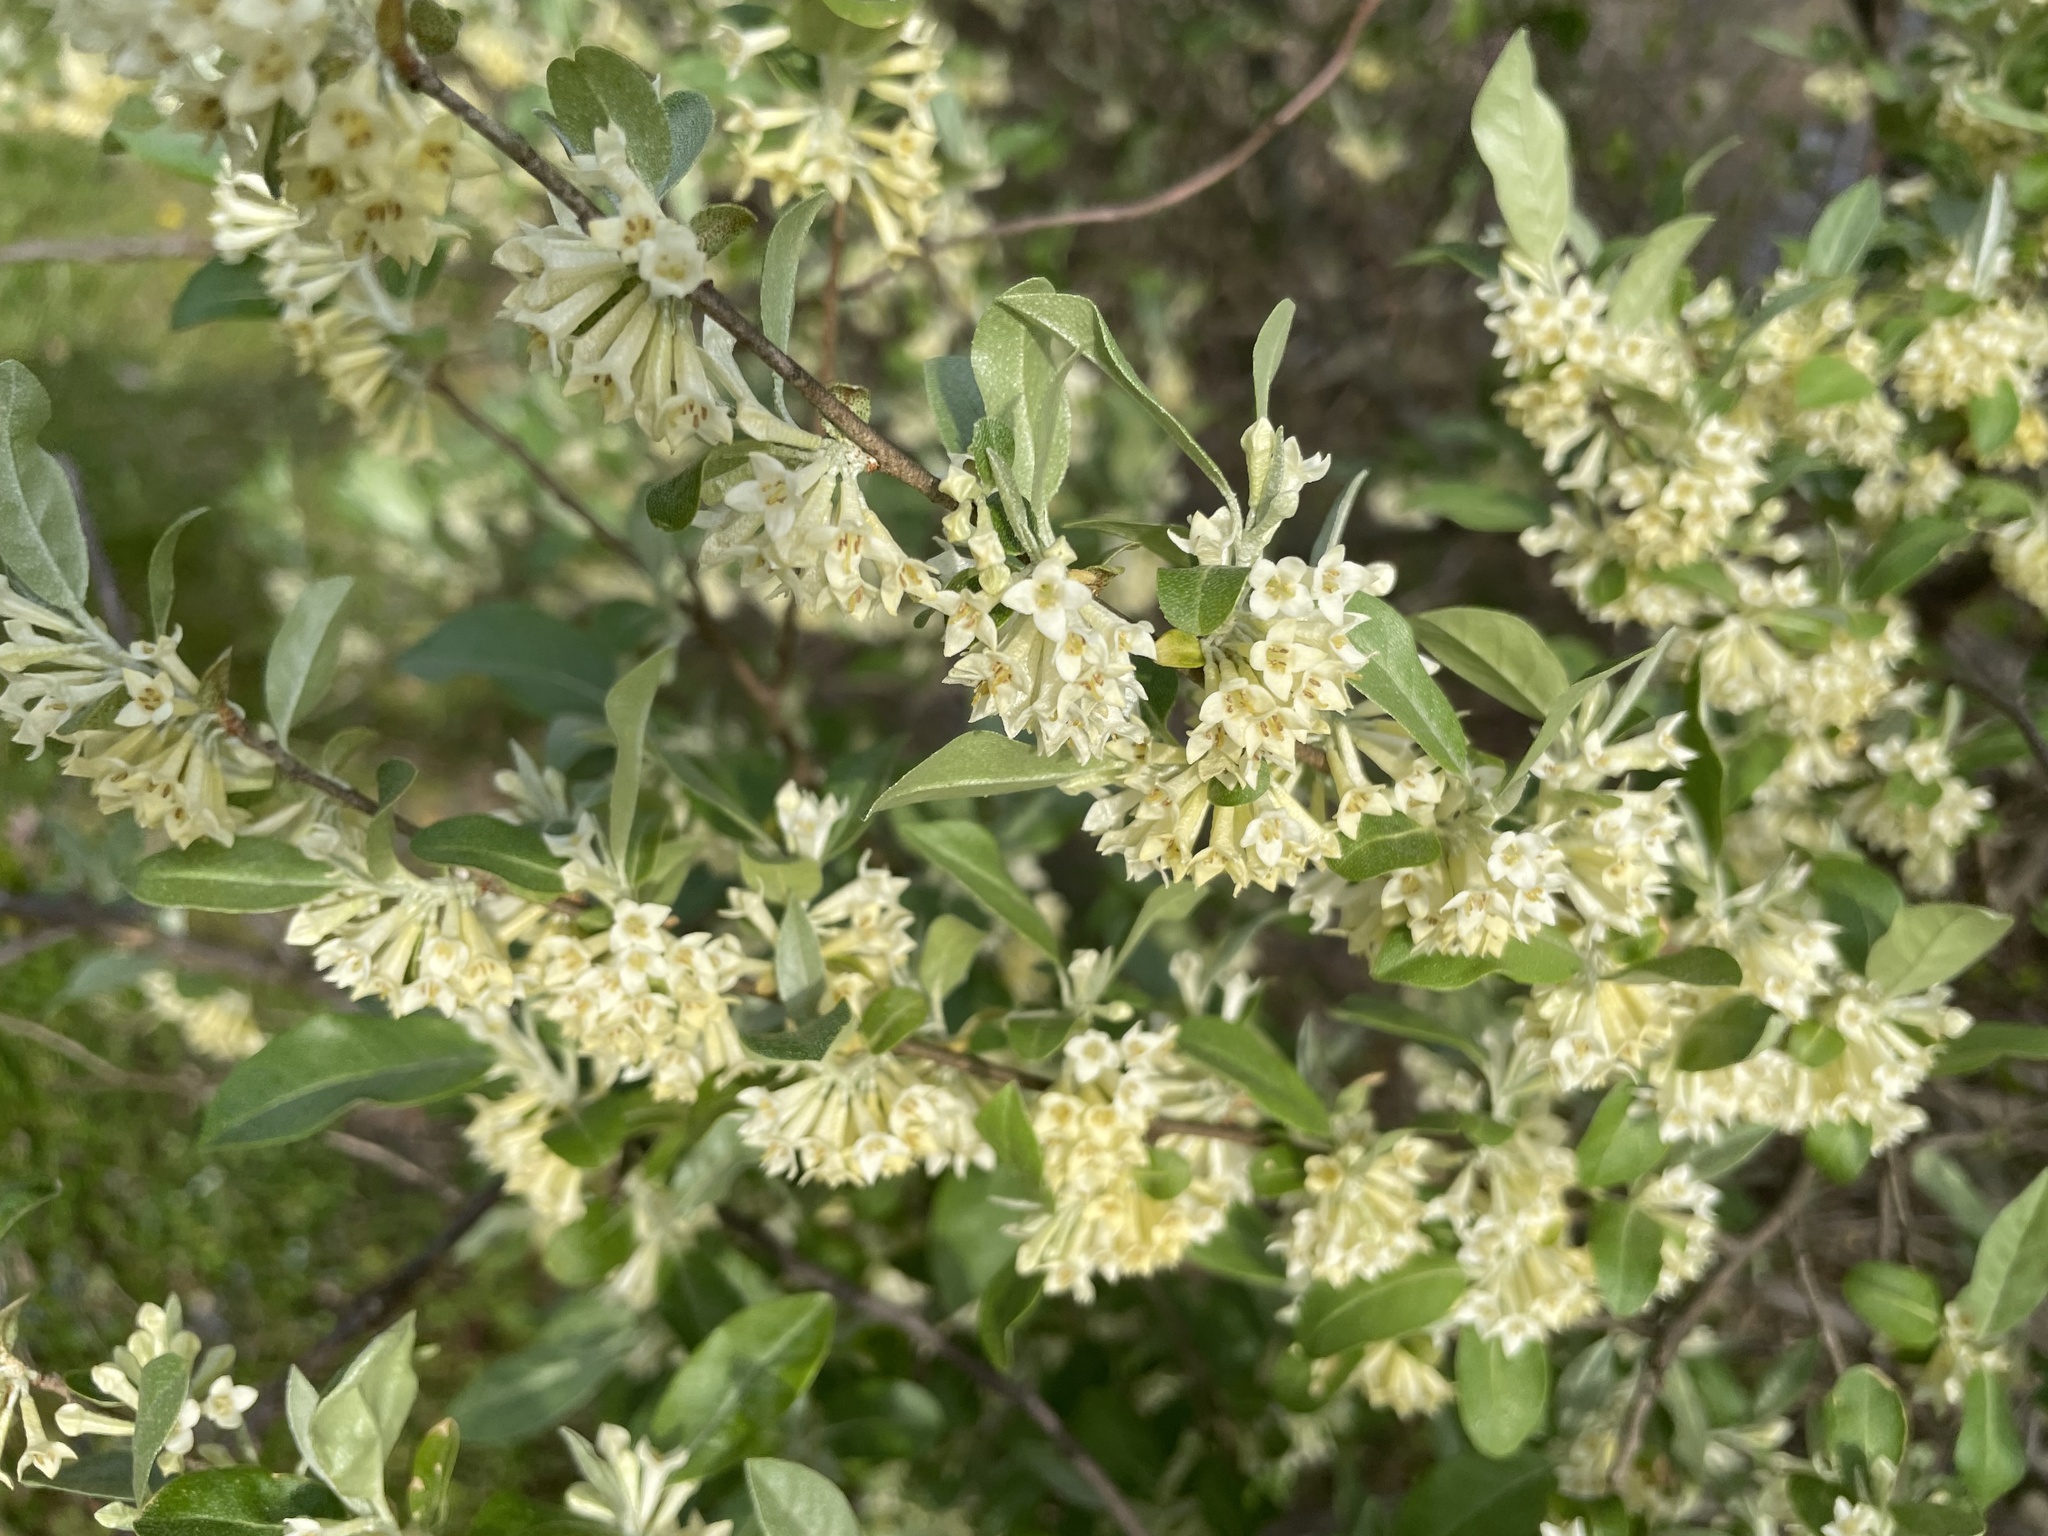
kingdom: Plantae
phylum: Tracheophyta
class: Magnoliopsida
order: Rosales
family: Elaeagnaceae
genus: Elaeagnus
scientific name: Elaeagnus umbellata
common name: Autumn olive
